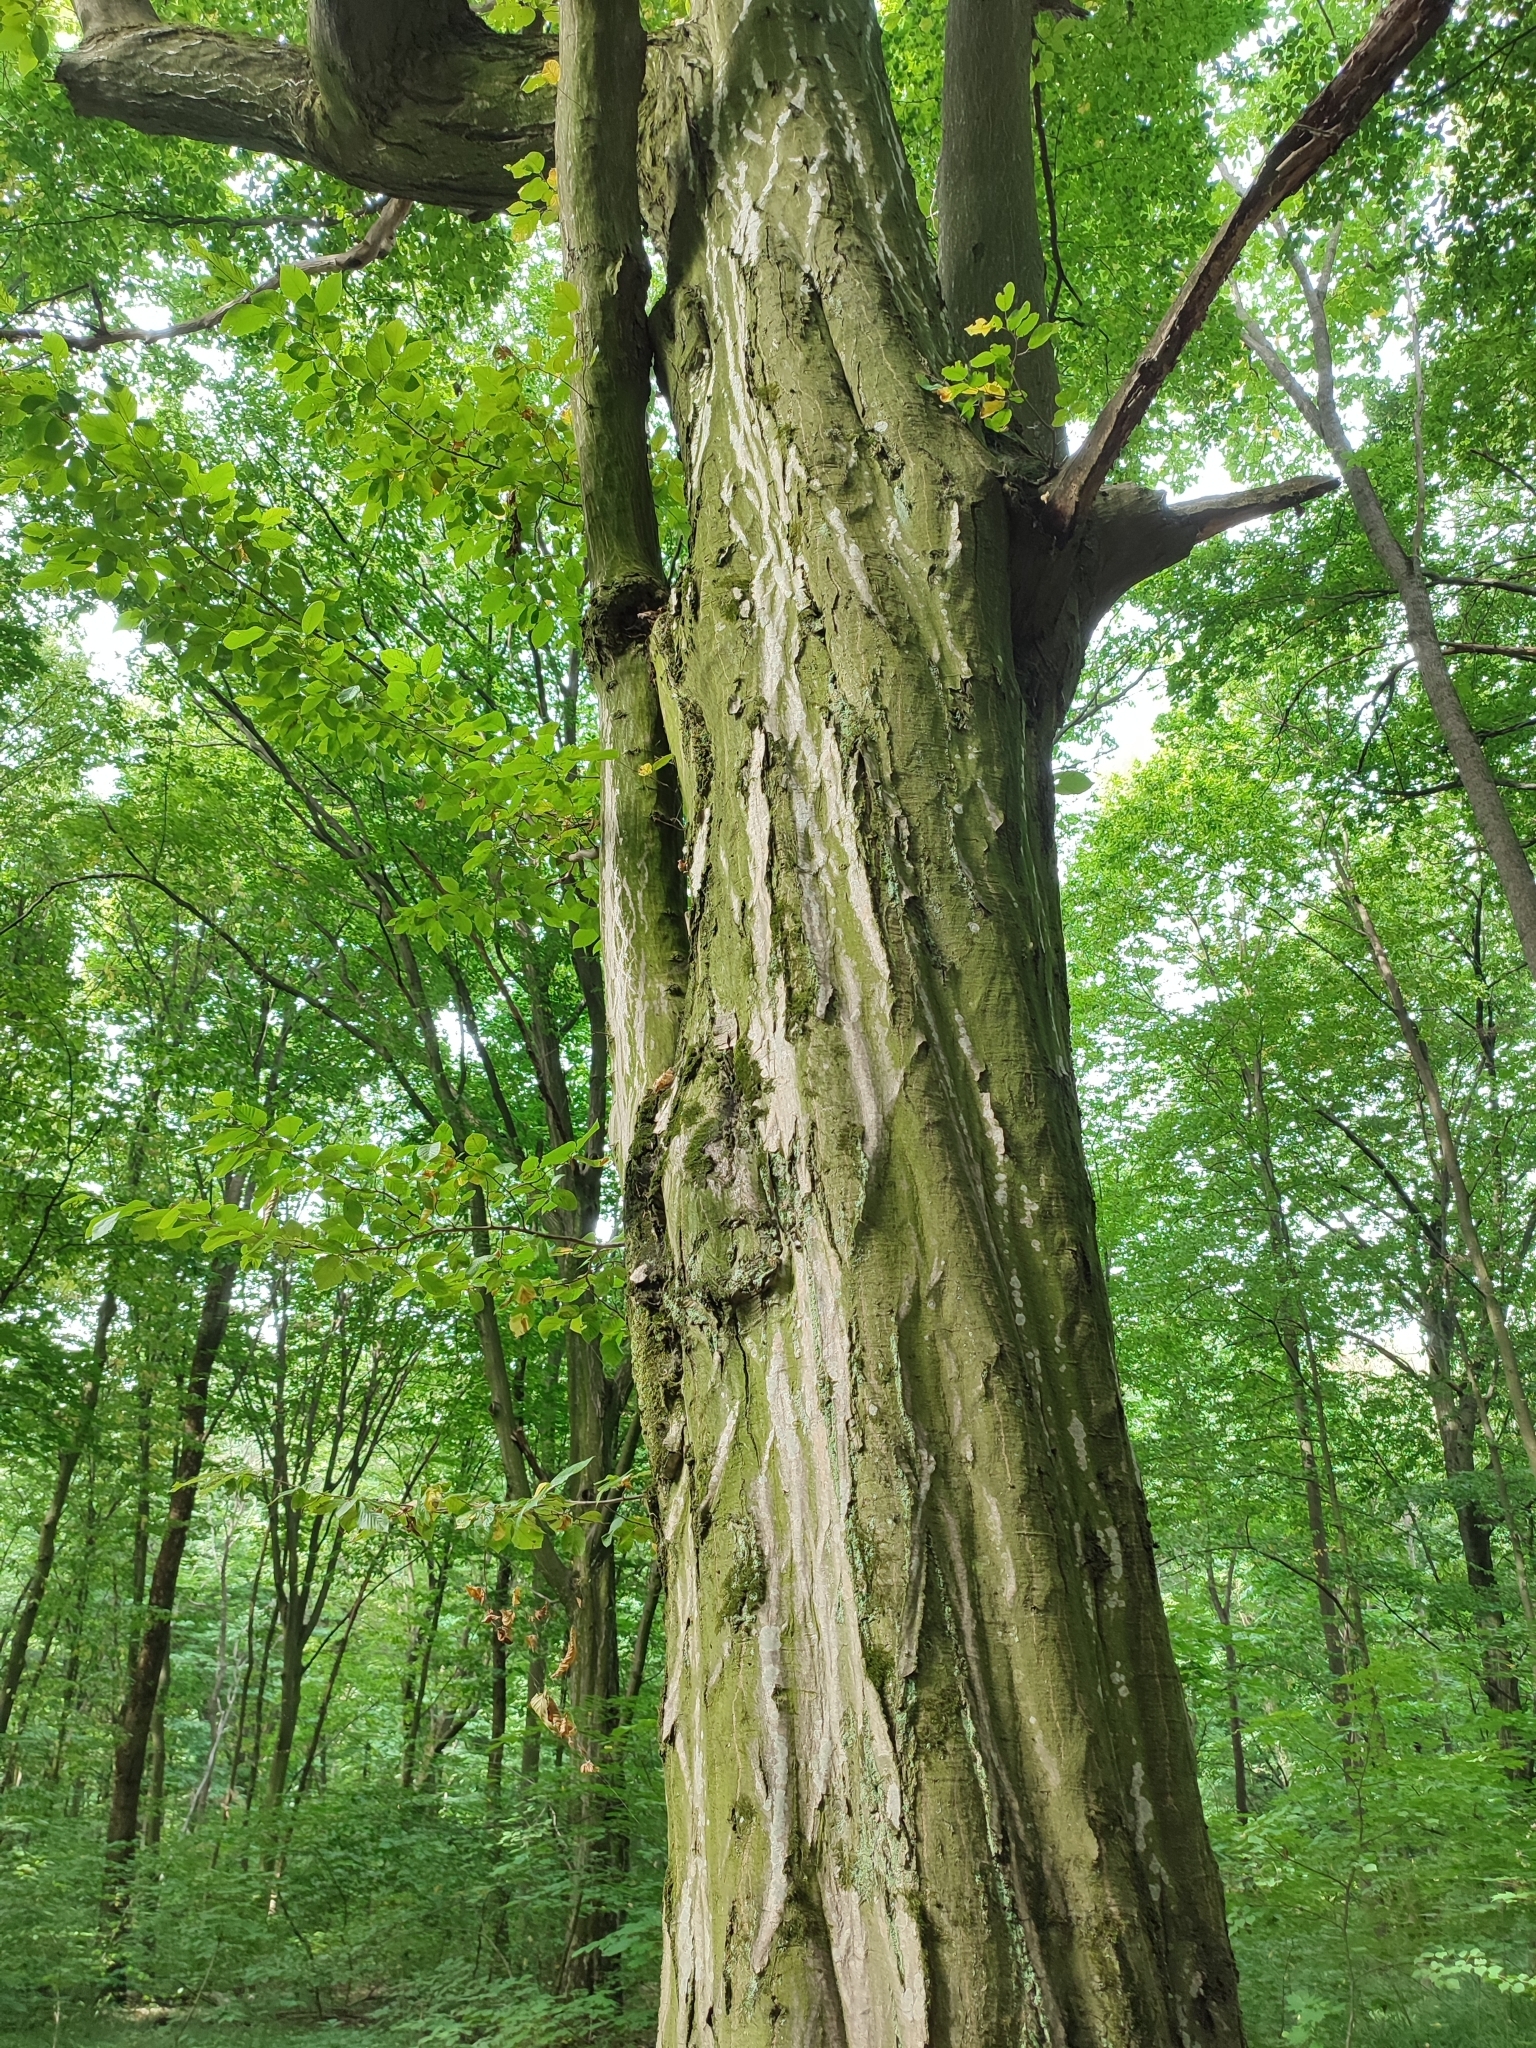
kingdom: Plantae
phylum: Tracheophyta
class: Magnoliopsida
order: Fagales
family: Betulaceae
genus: Carpinus
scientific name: Carpinus betulus
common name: Hornbeam
